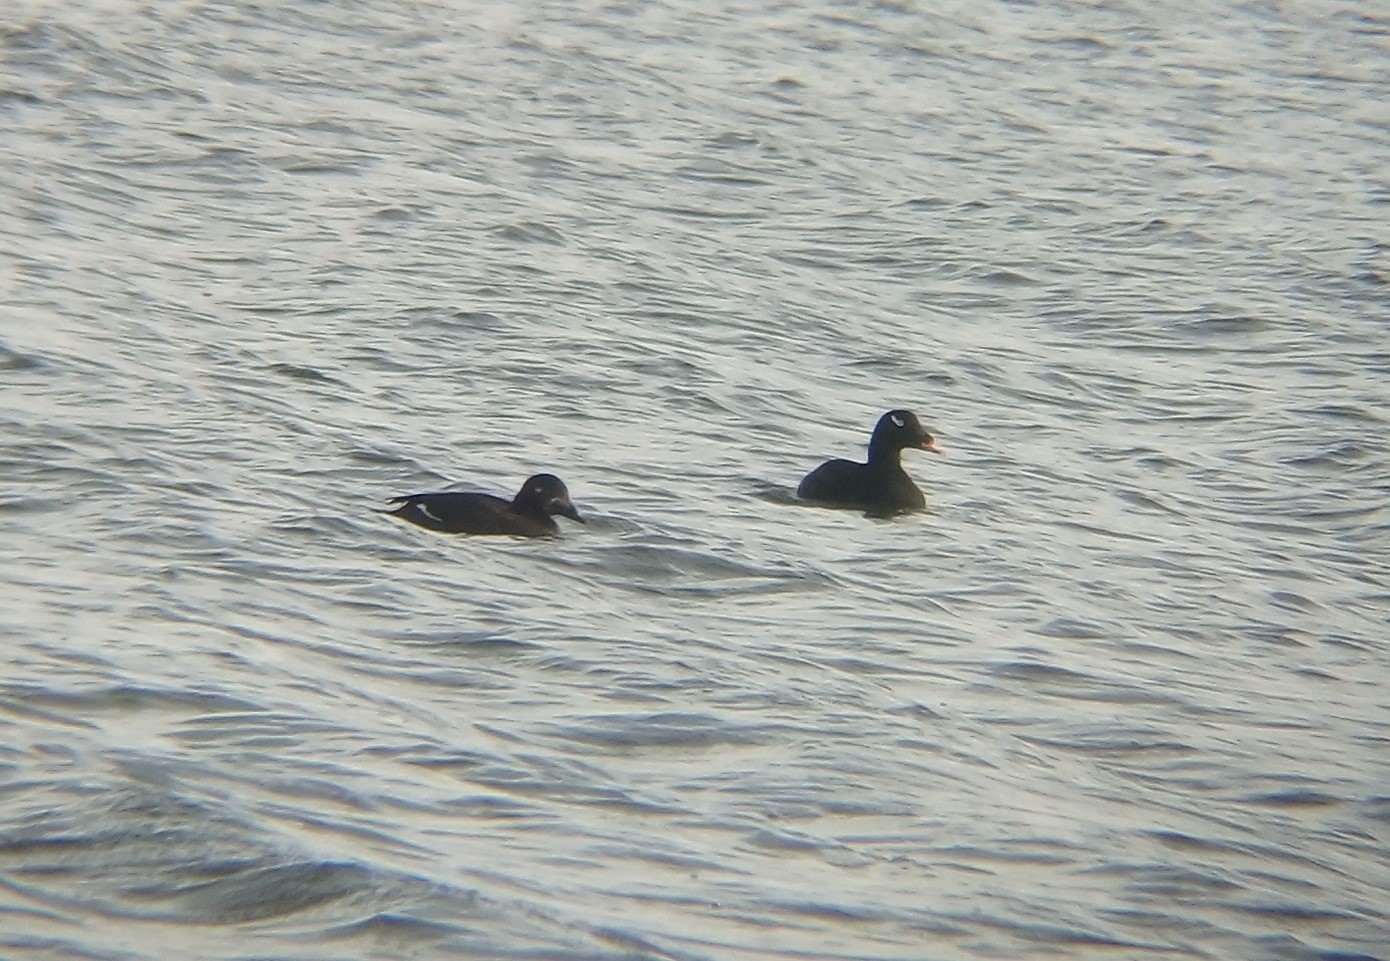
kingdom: Animalia
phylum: Chordata
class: Aves
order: Anseriformes
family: Anatidae
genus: Melanitta
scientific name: Melanitta deglandi
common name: White-winged scoter
